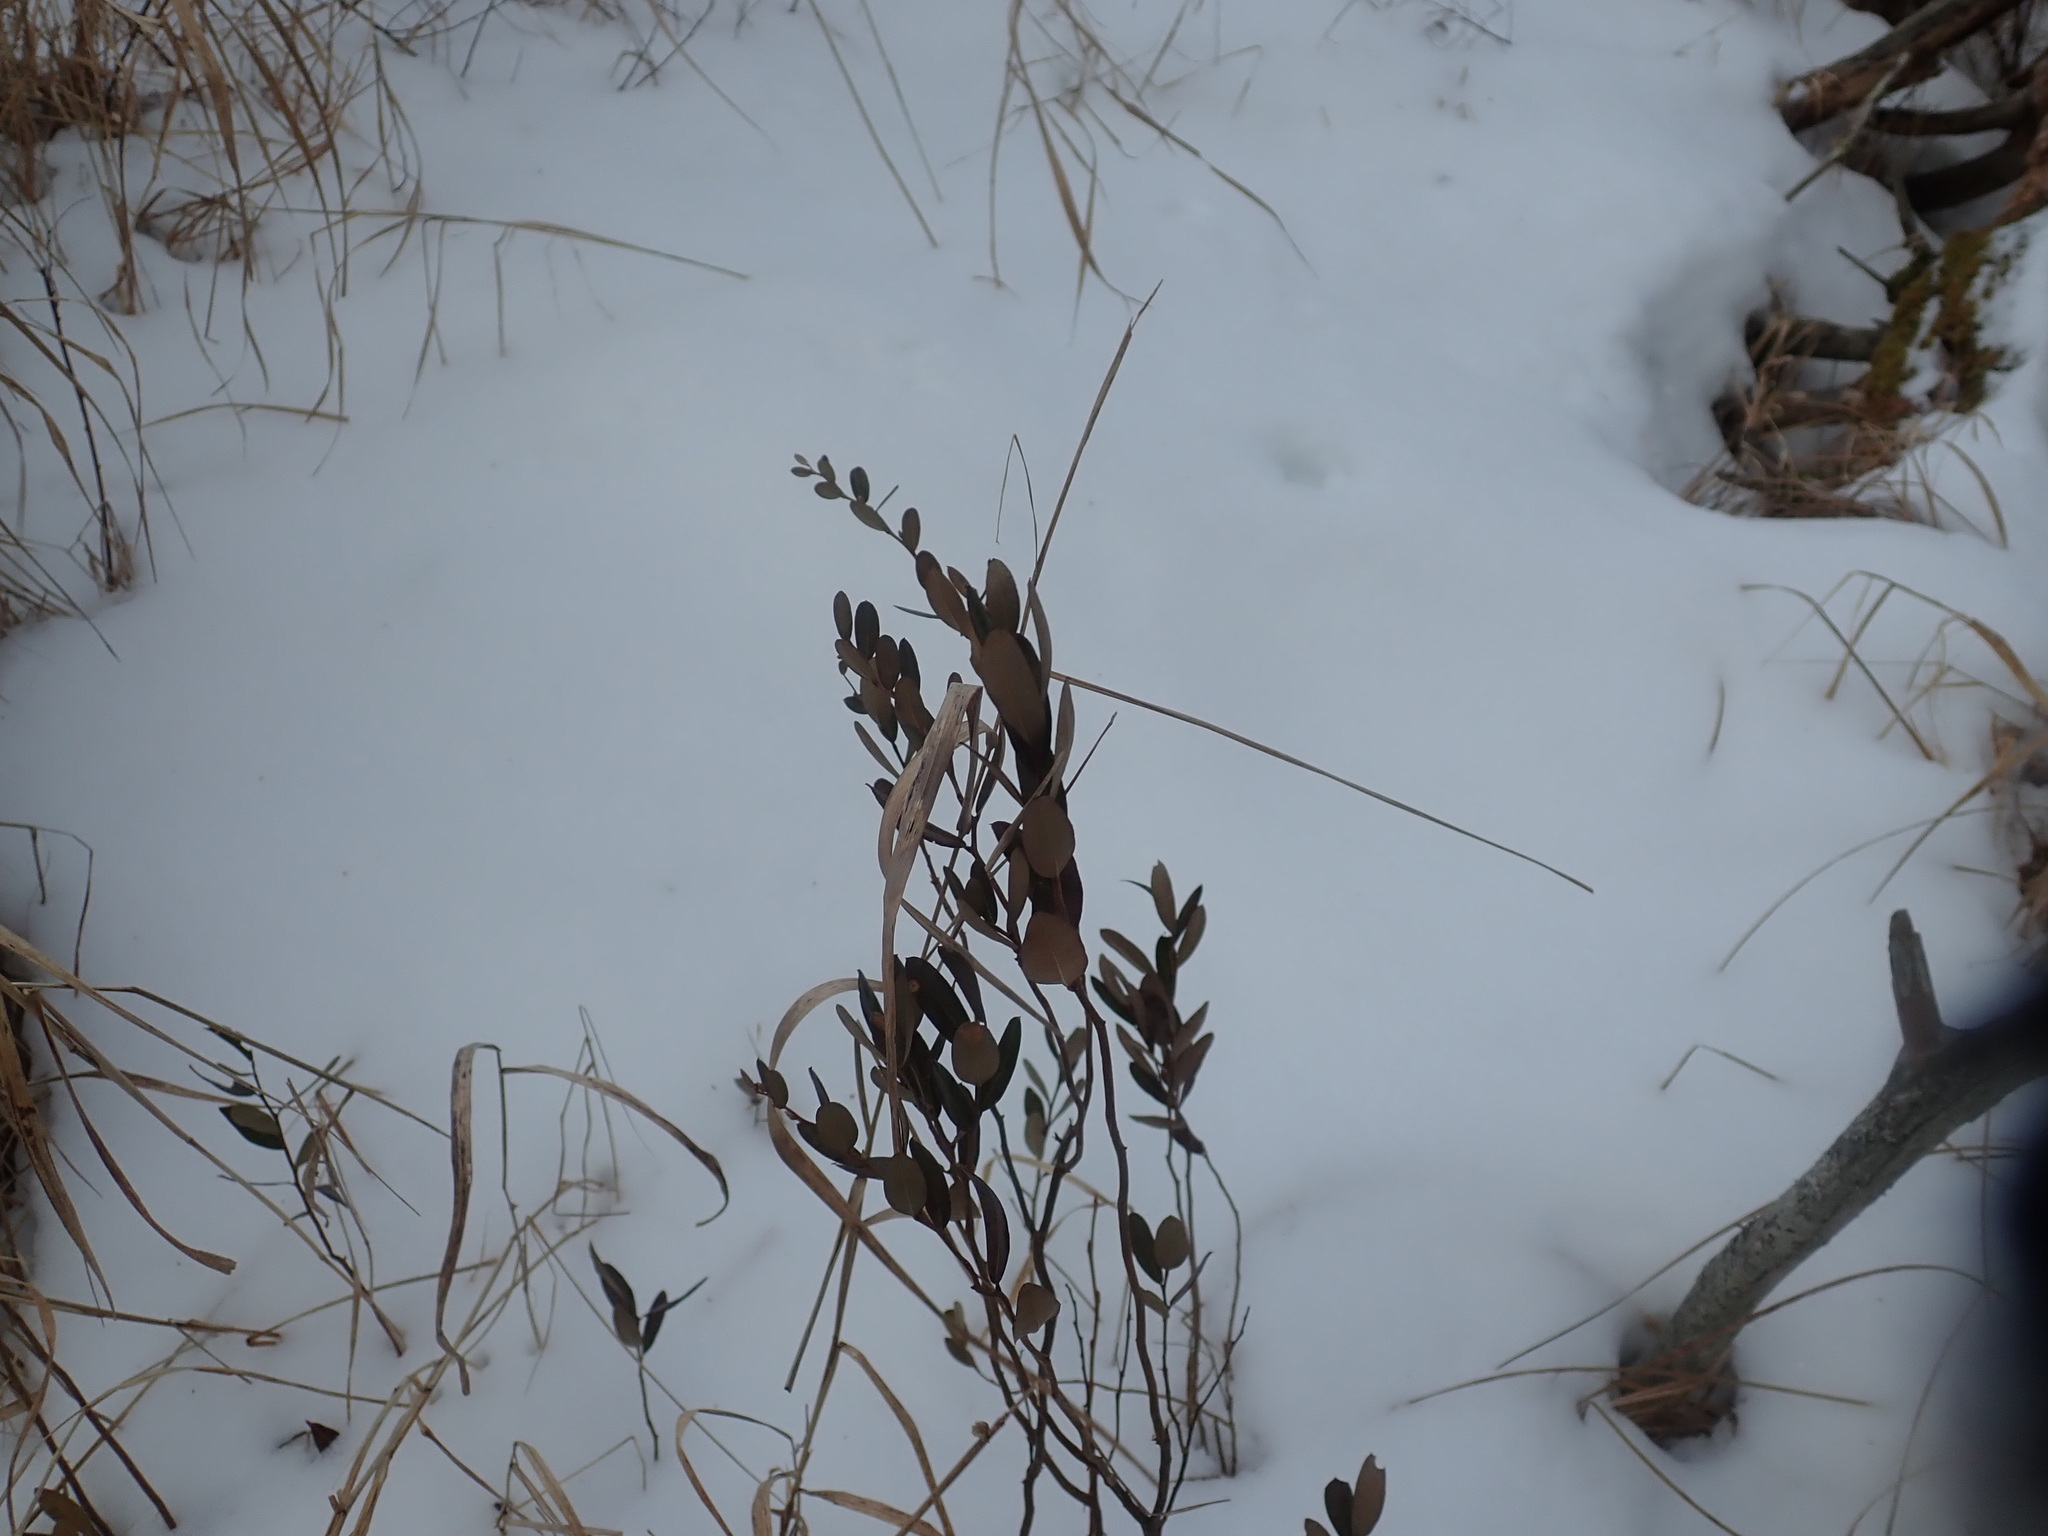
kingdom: Plantae
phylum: Tracheophyta
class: Magnoliopsida
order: Ericales
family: Ericaceae
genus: Chamaedaphne
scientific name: Chamaedaphne calyculata
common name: Leatherleaf
